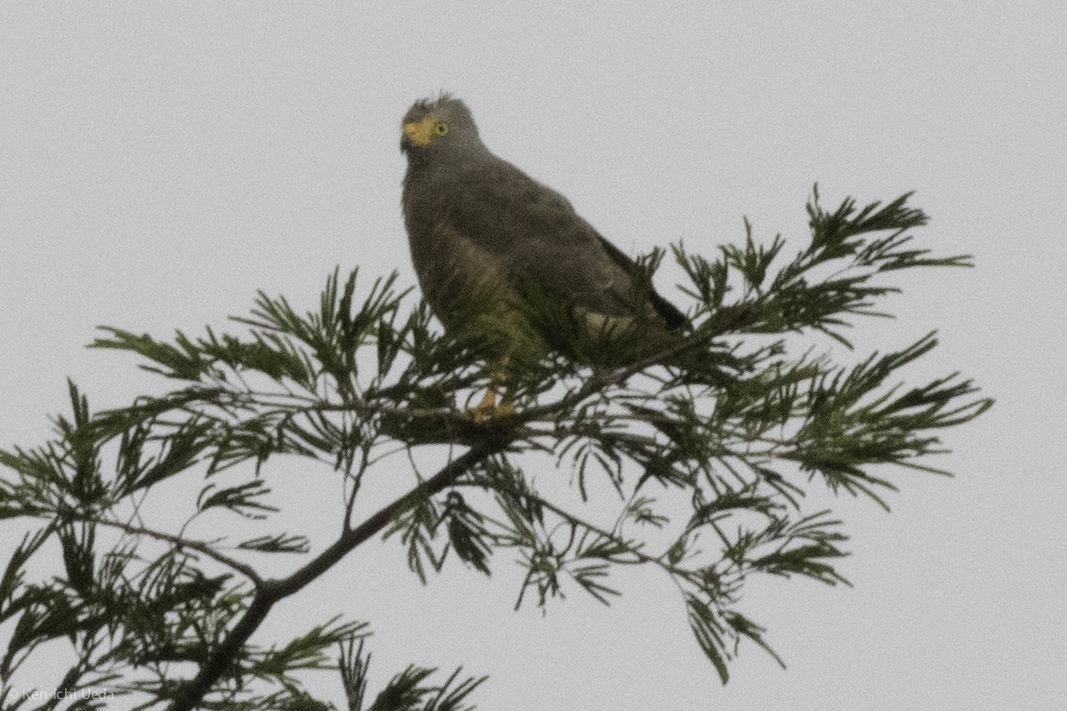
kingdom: Animalia
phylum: Chordata
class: Aves
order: Accipitriformes
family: Accipitridae
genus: Rupornis
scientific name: Rupornis magnirostris
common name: Roadside hawk
